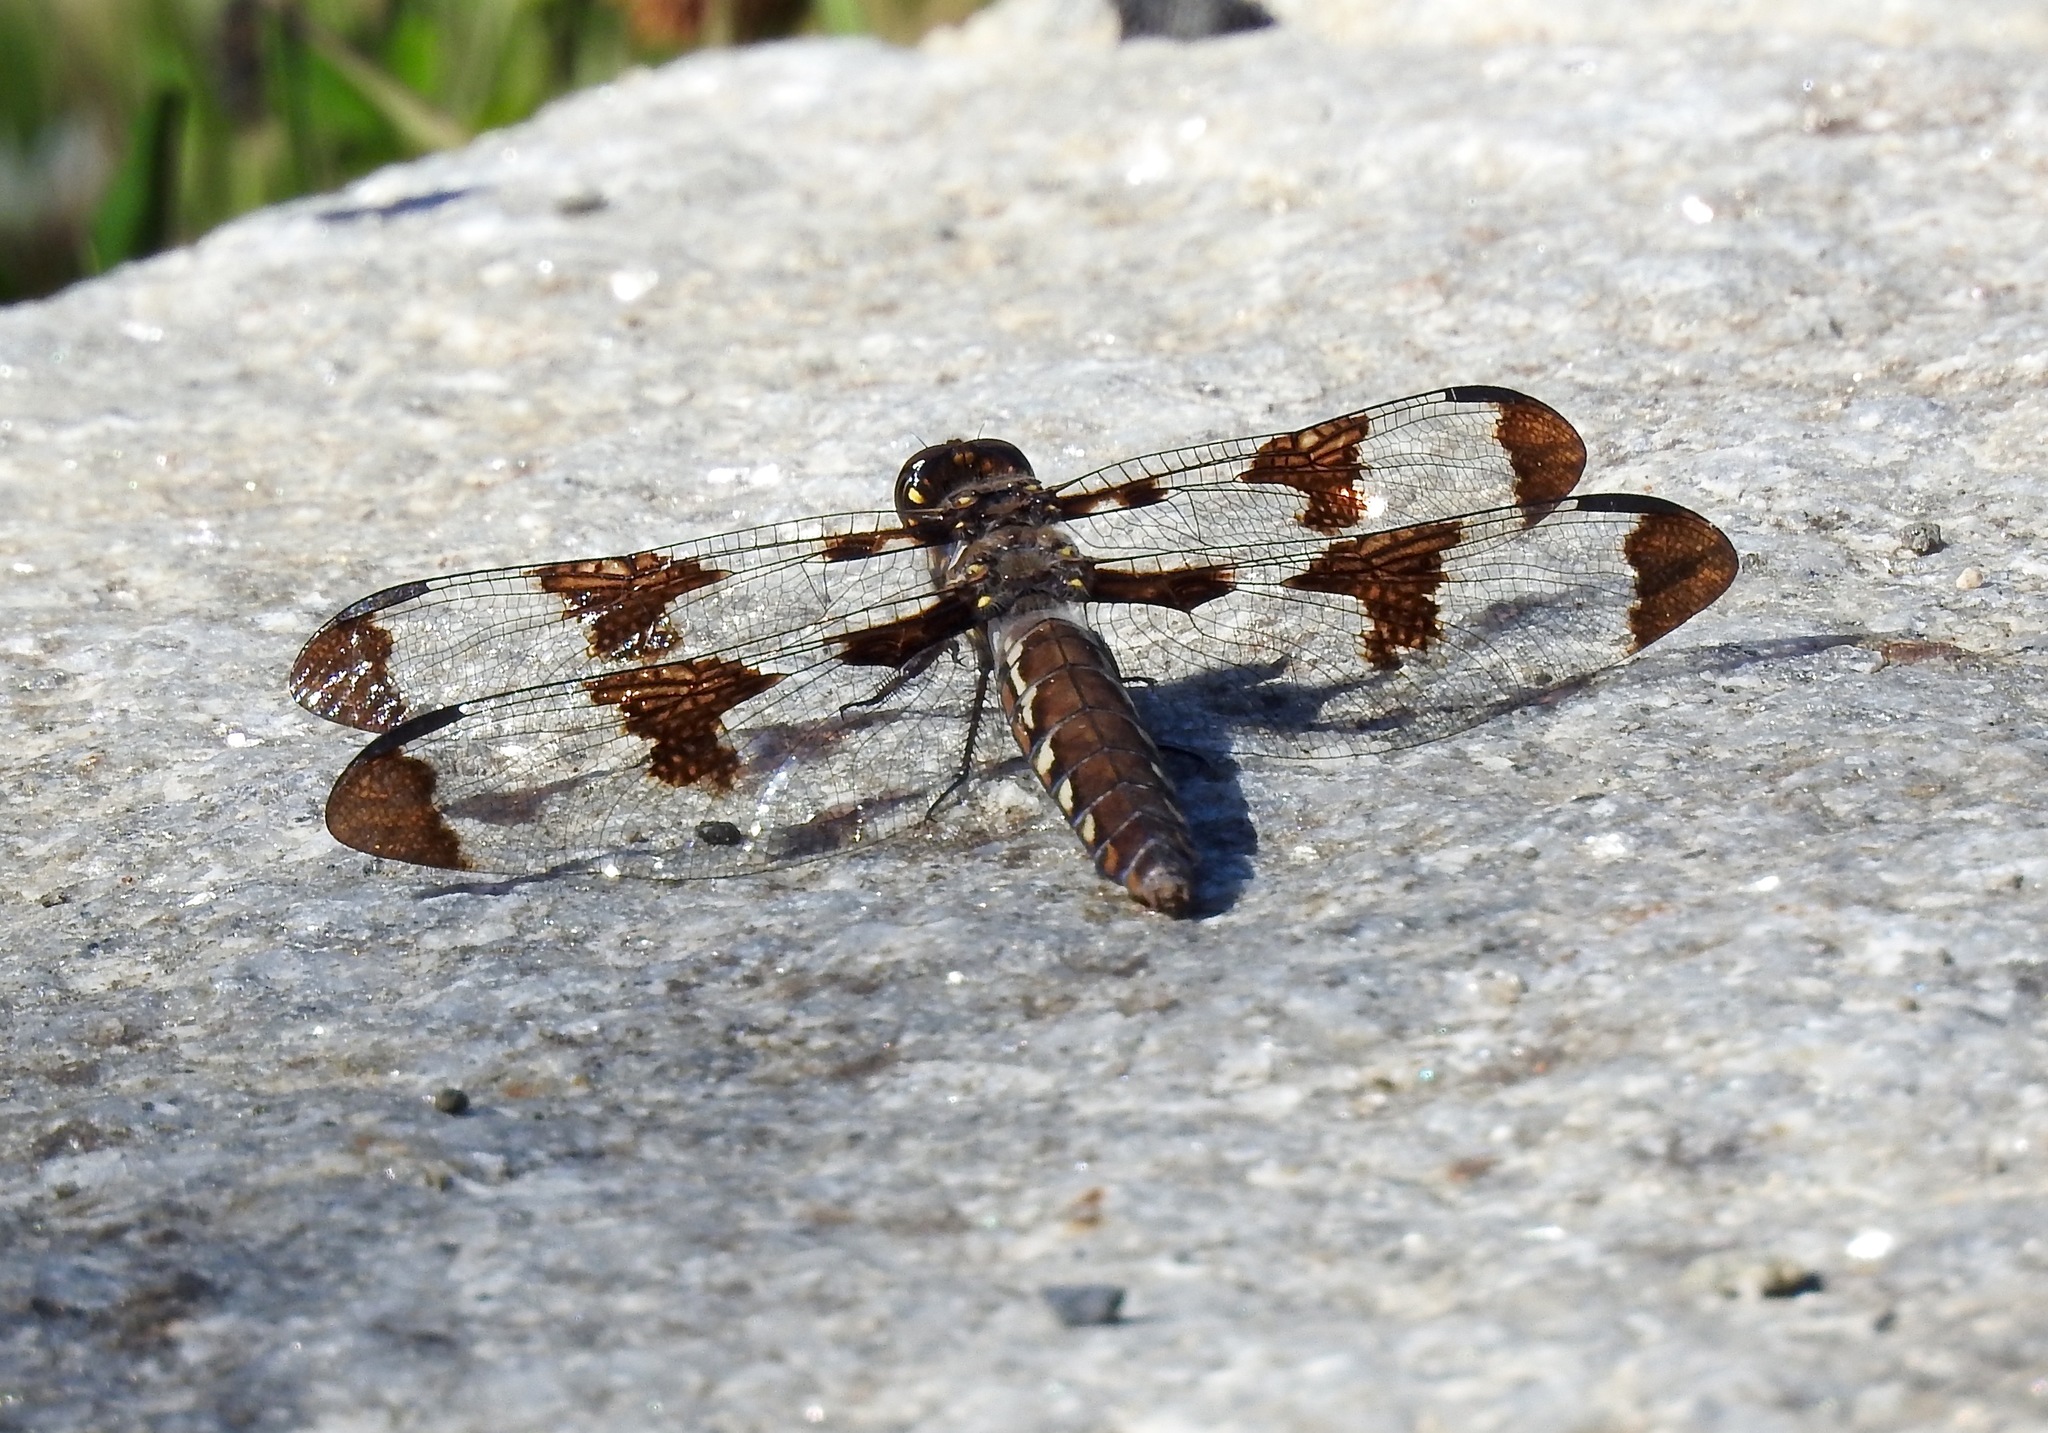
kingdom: Animalia
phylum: Arthropoda
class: Insecta
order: Odonata
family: Libellulidae
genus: Plathemis
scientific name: Plathemis lydia
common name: Common whitetail
